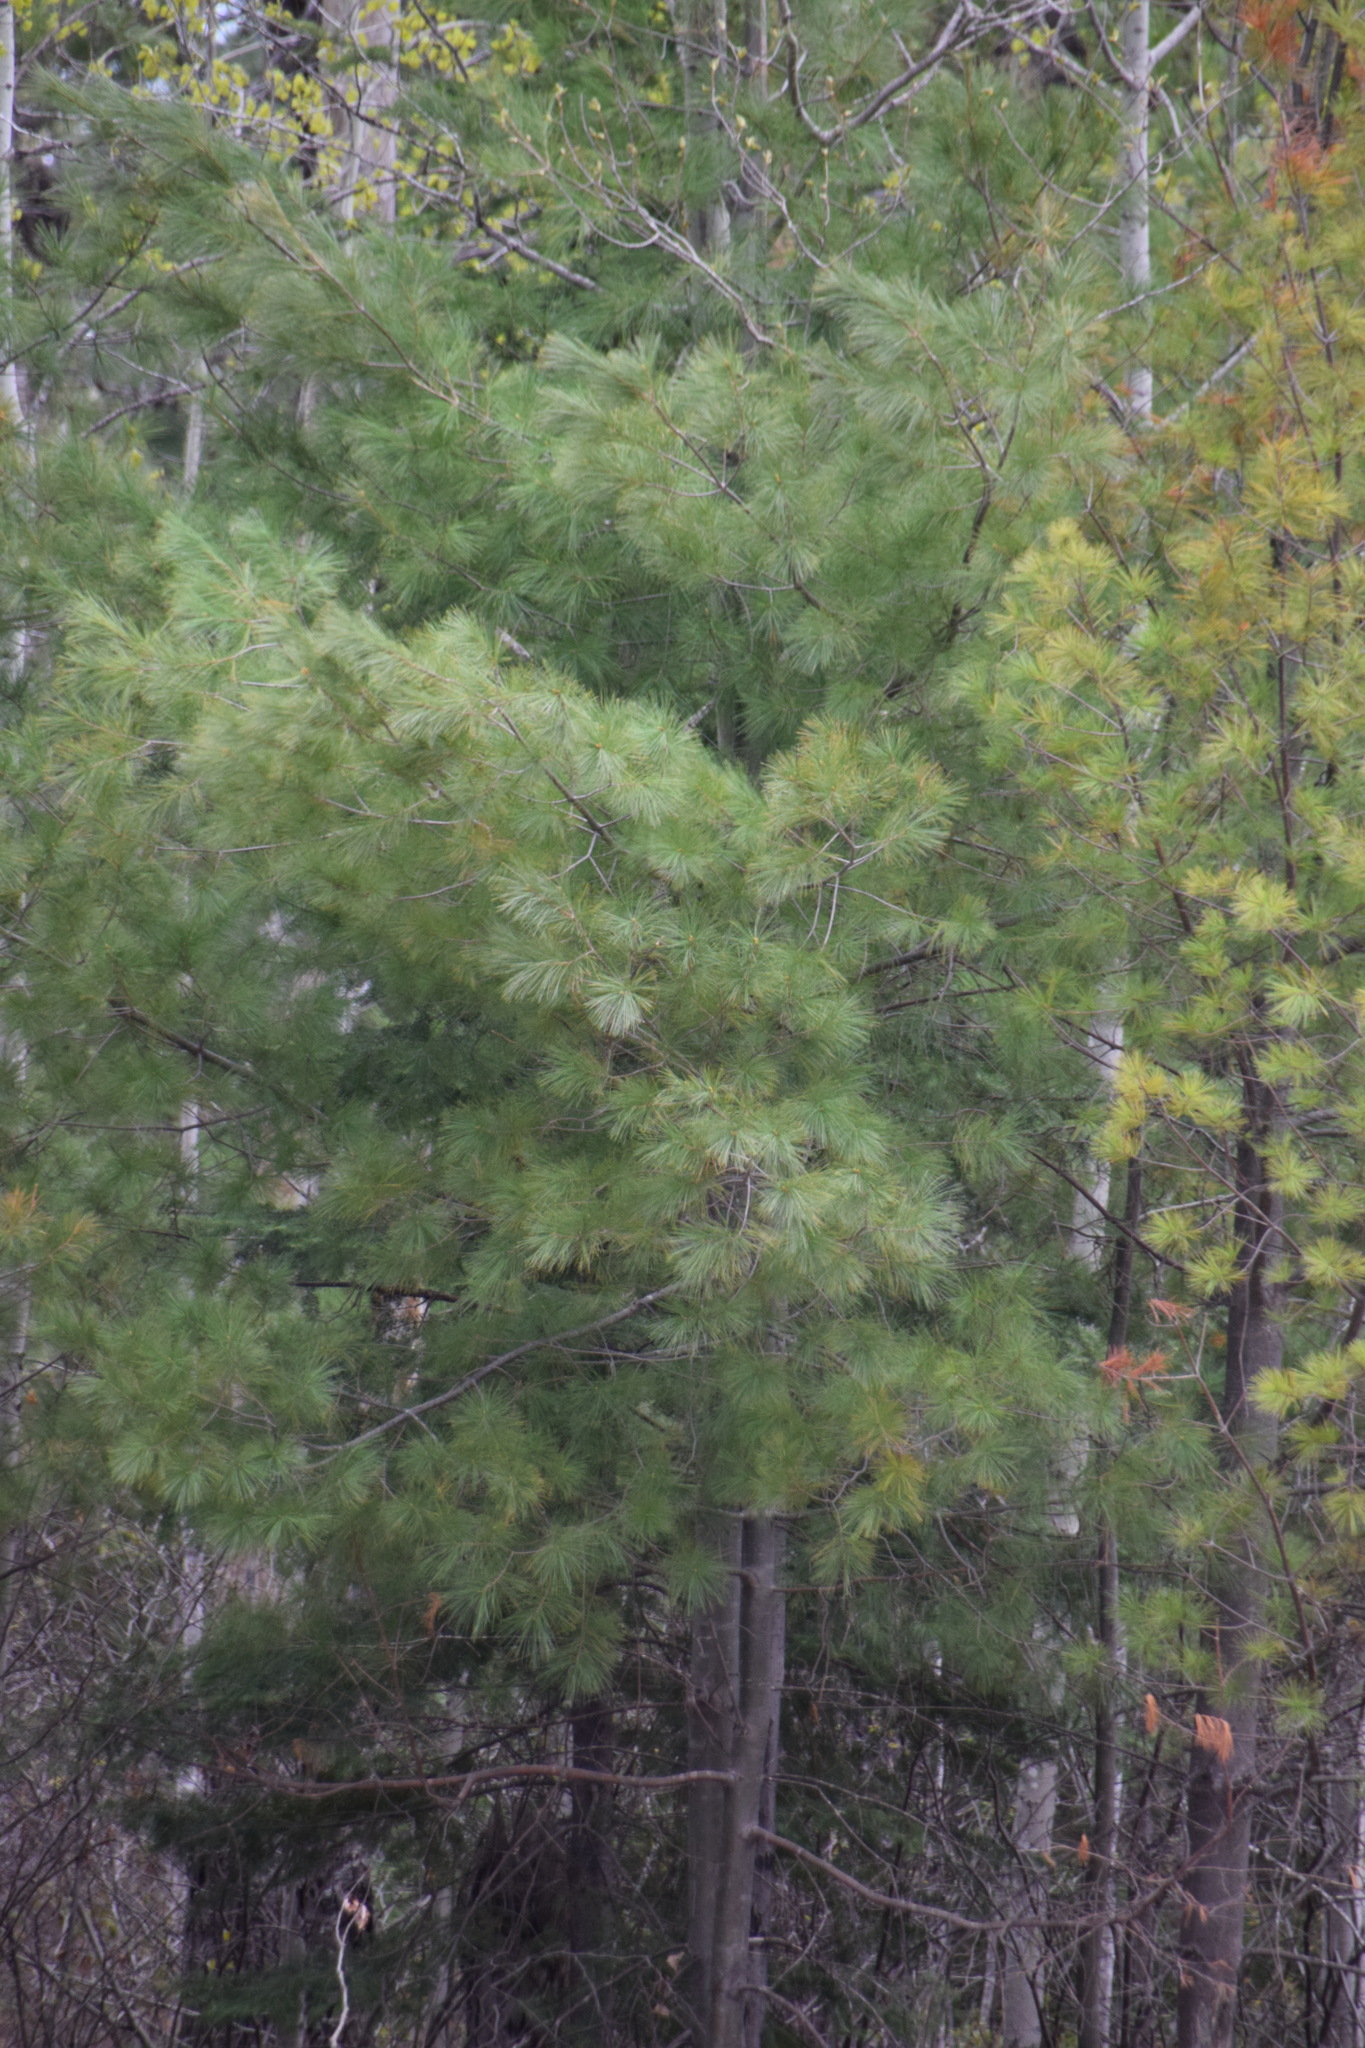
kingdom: Plantae
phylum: Tracheophyta
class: Pinopsida
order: Pinales
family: Pinaceae
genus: Pinus
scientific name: Pinus strobus
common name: Weymouth pine
